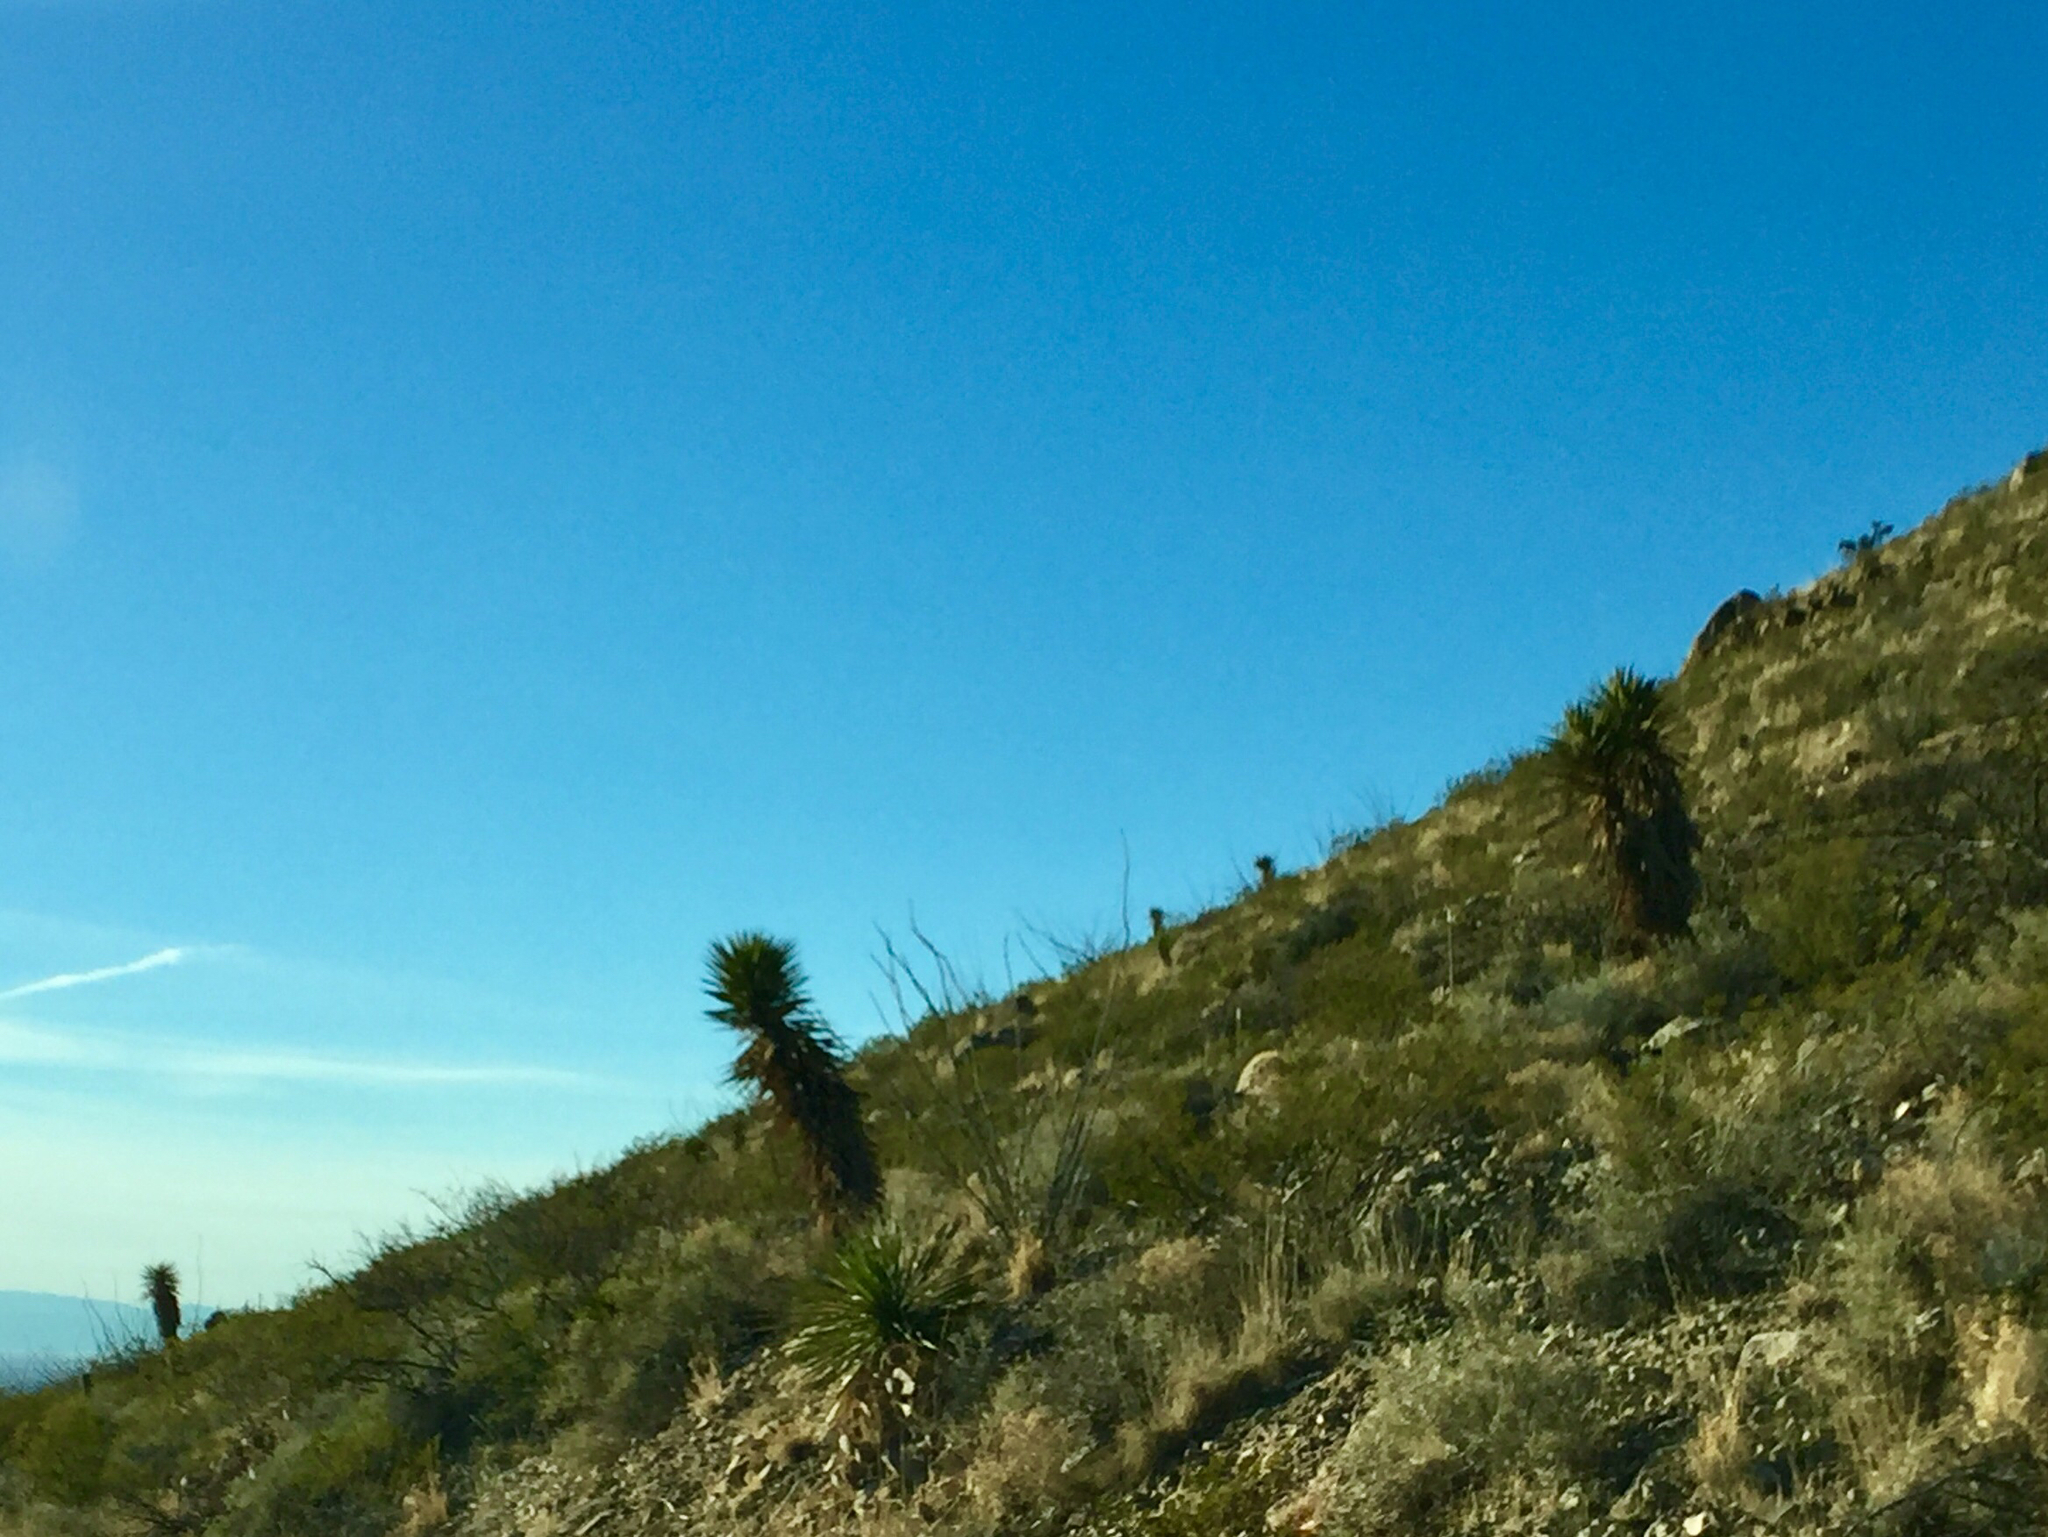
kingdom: Plantae
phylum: Tracheophyta
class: Liliopsida
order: Asparagales
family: Asparagaceae
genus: Yucca
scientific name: Yucca treculiana
